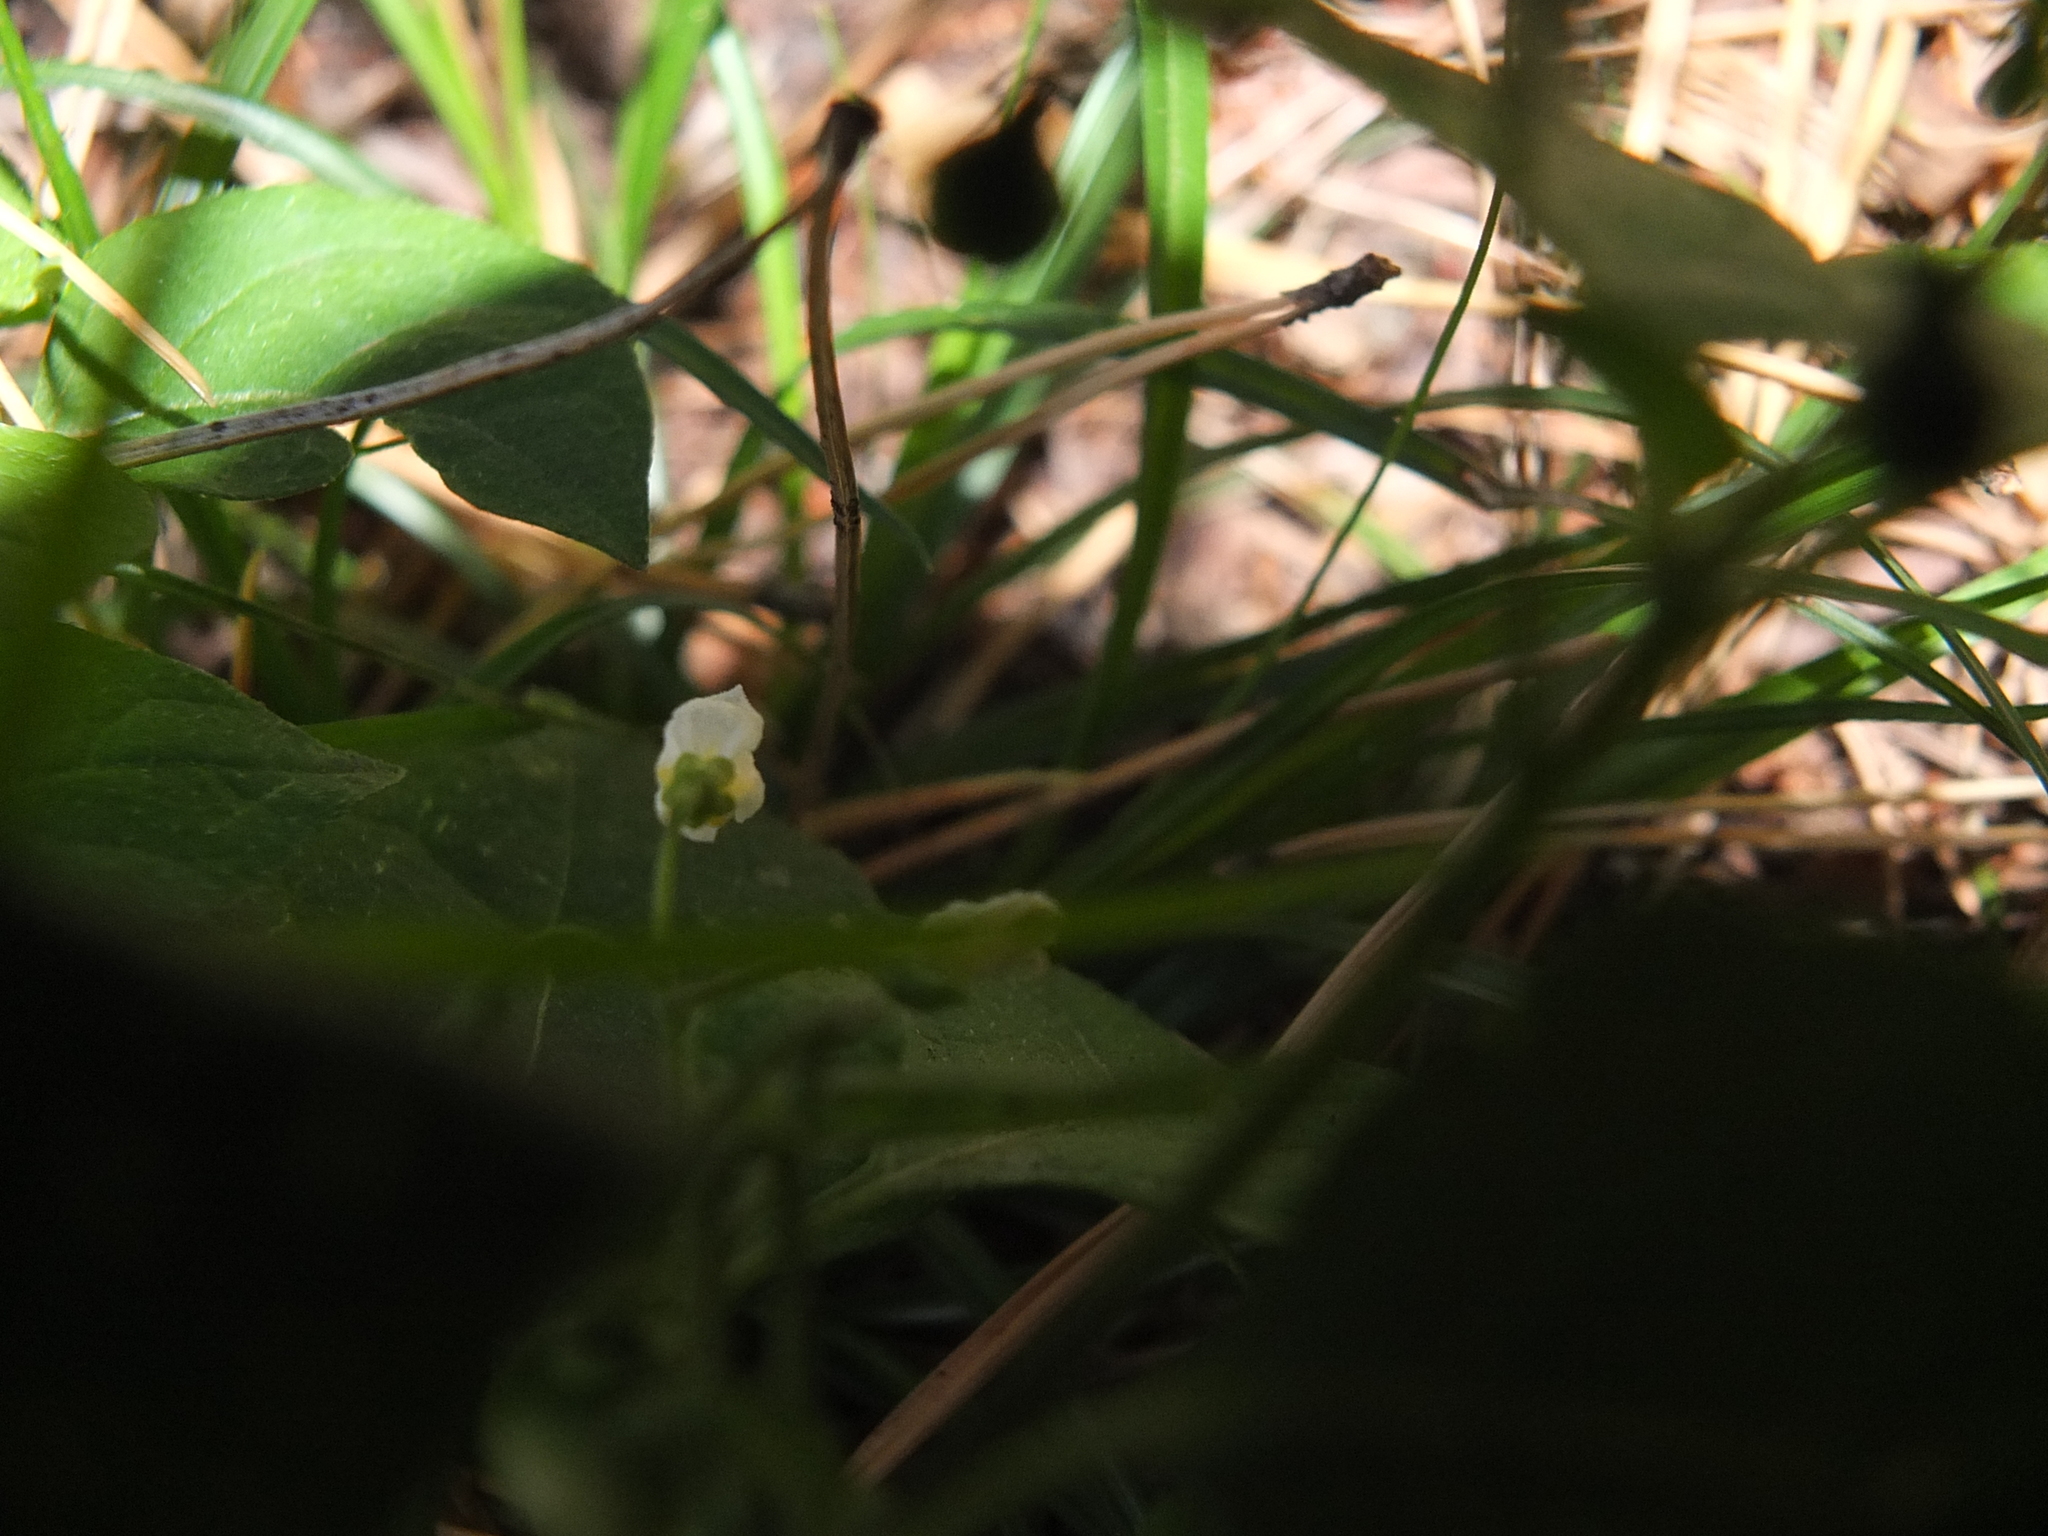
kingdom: Plantae
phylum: Tracheophyta
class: Magnoliopsida
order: Solanales
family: Solanaceae
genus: Solanum
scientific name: Solanum nigrum
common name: Black nightshade
